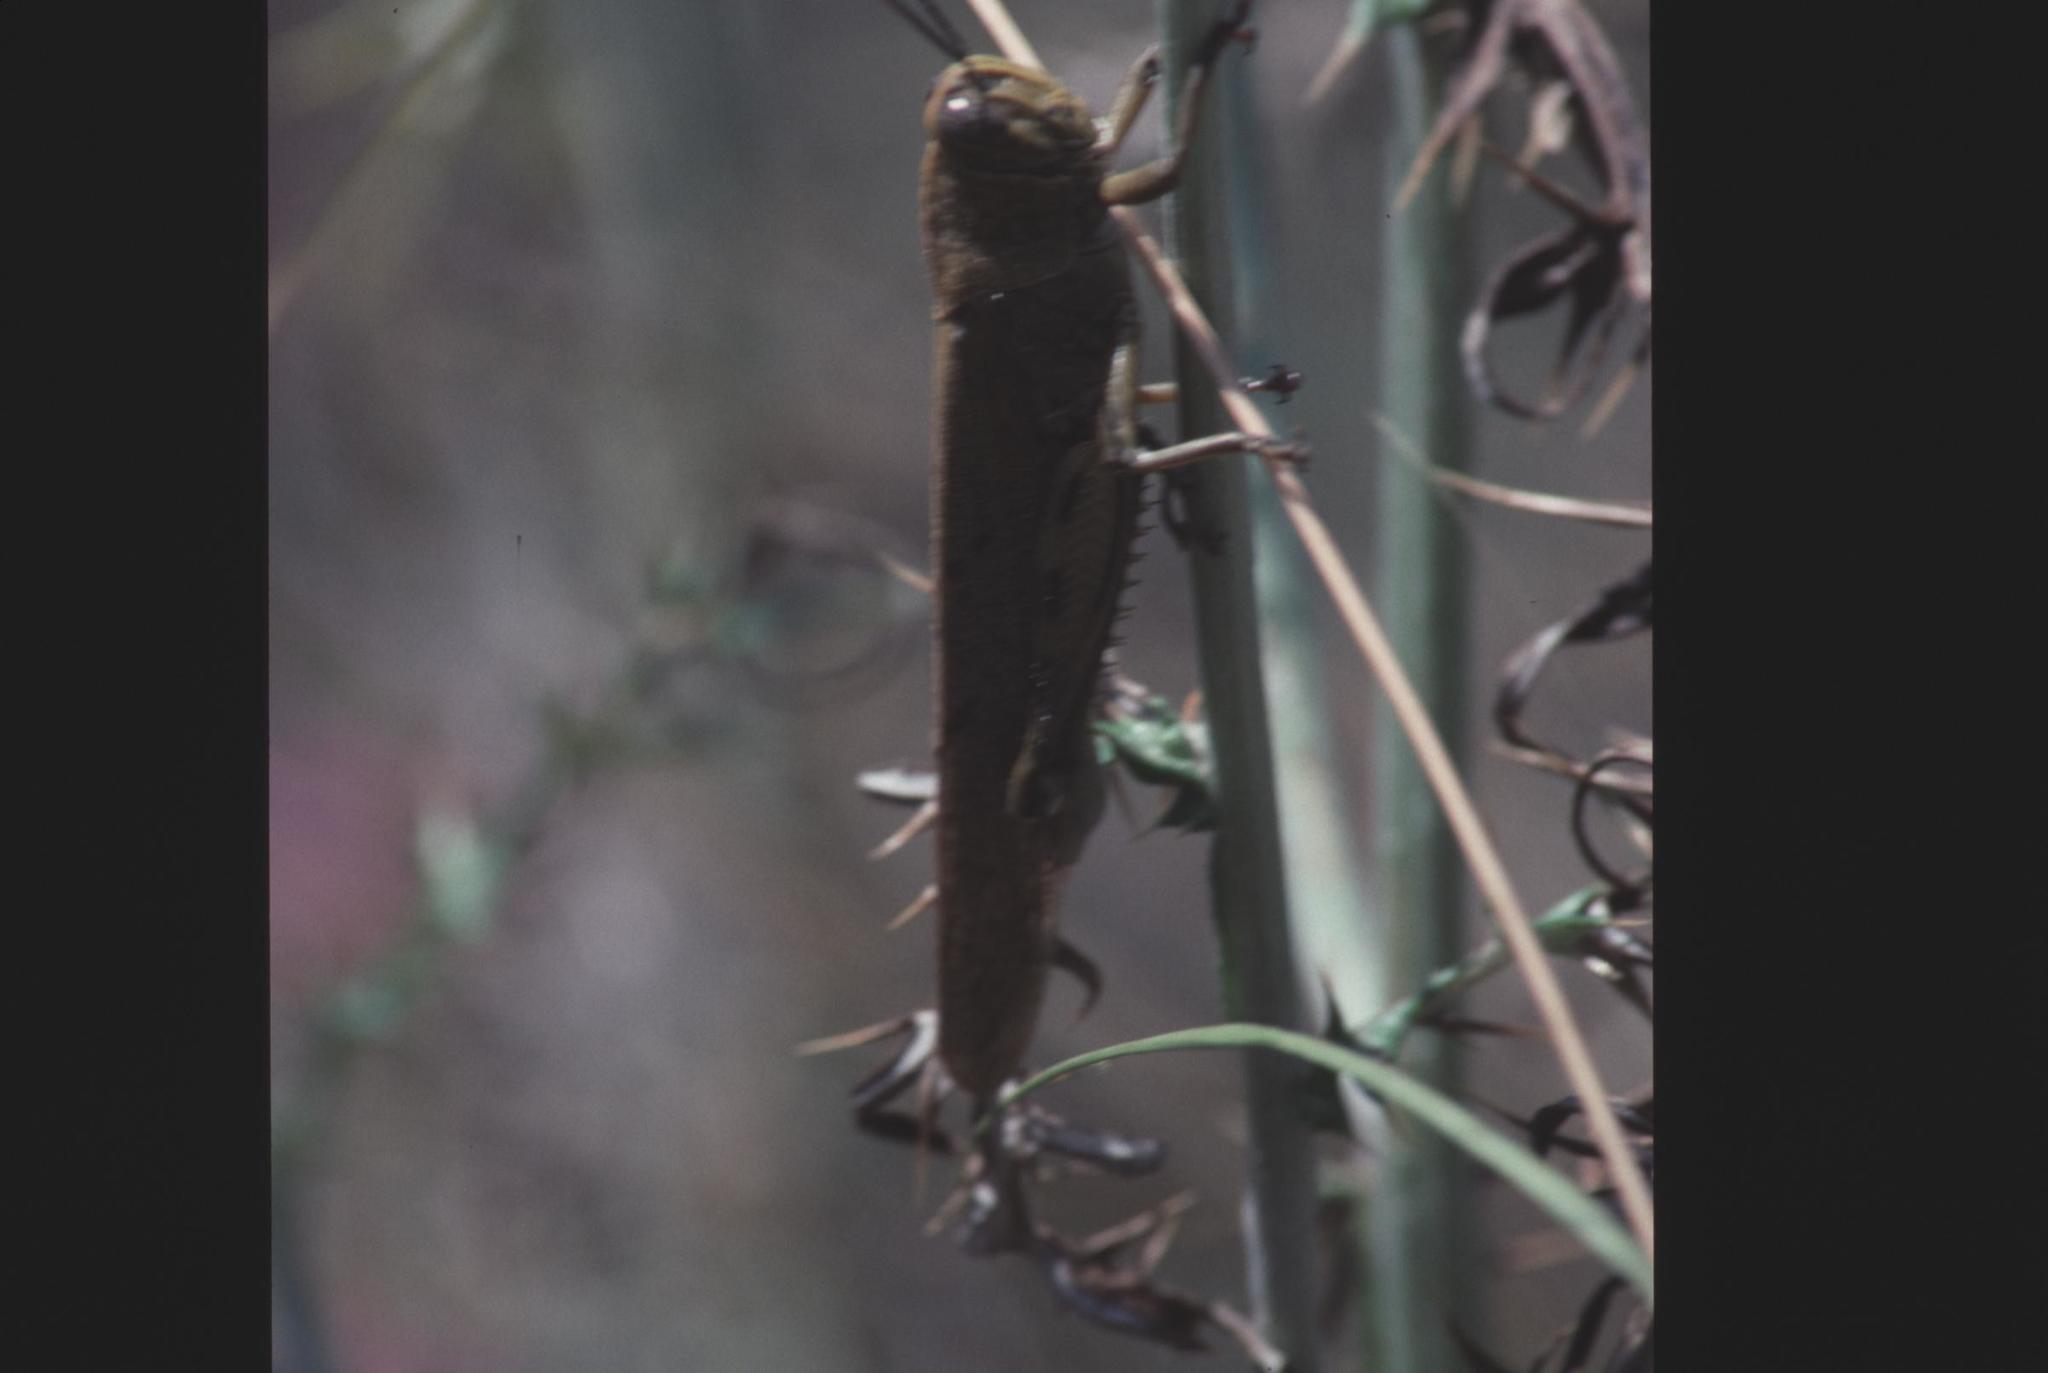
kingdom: Animalia
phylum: Arthropoda
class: Insecta
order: Orthoptera
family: Acrididae
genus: Anacridium
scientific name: Anacridium aegyptium
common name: Egyptian grasshopper
